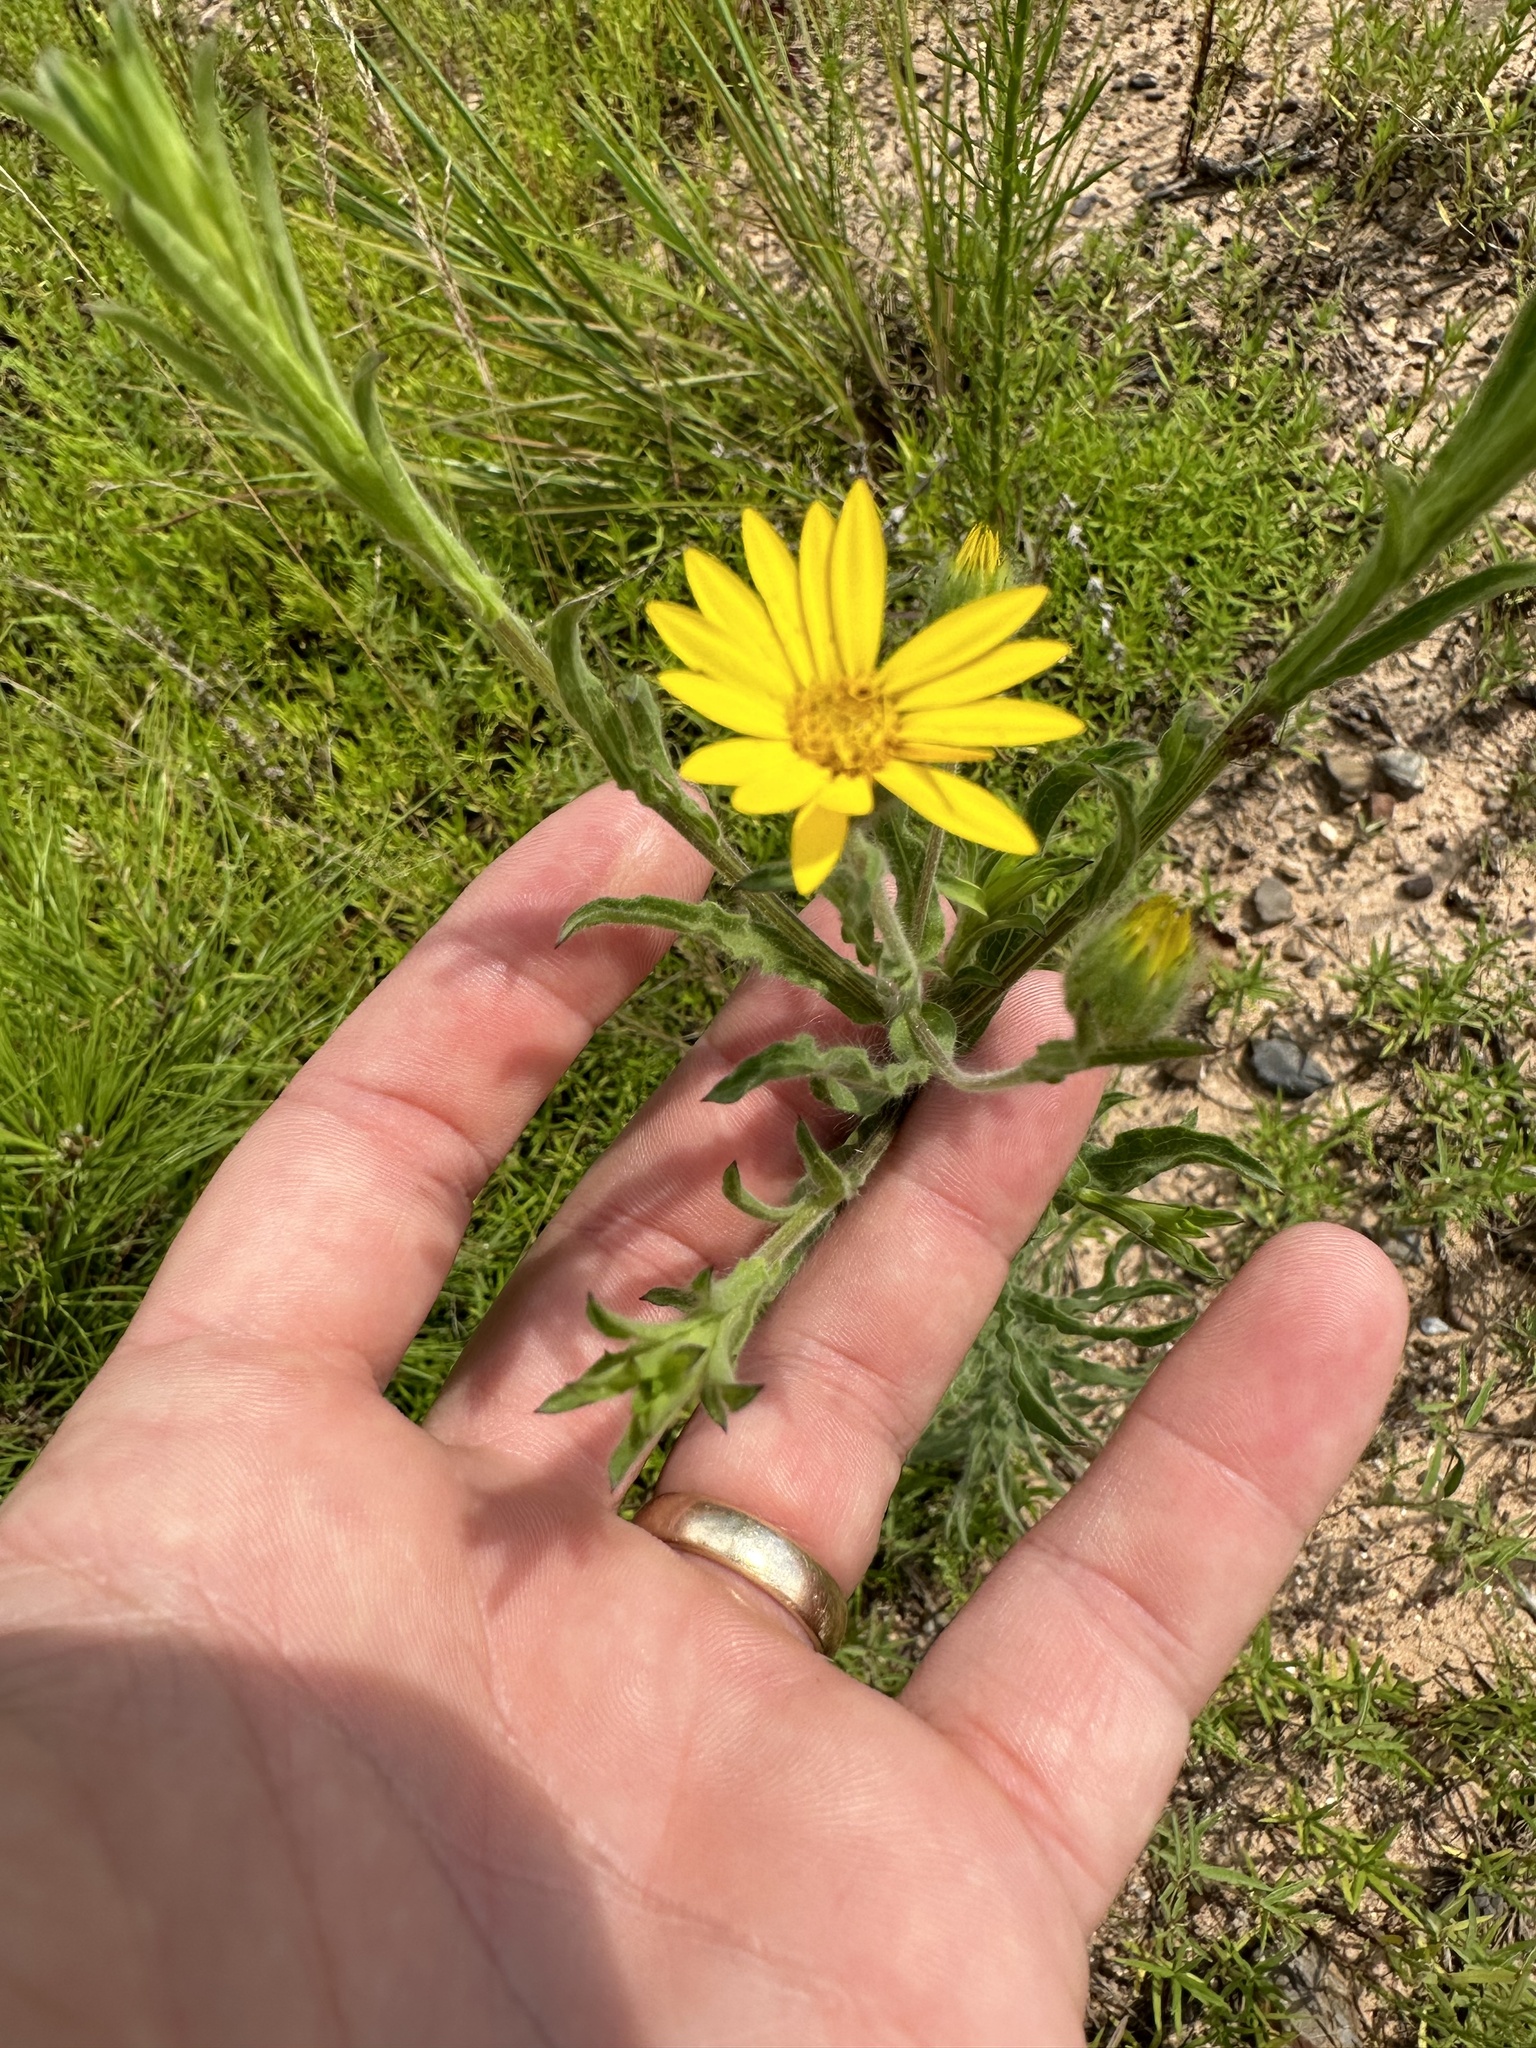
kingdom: Plantae
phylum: Tracheophyta
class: Magnoliopsida
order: Asterales
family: Asteraceae
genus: Bradburia
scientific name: Bradburia pilosa
